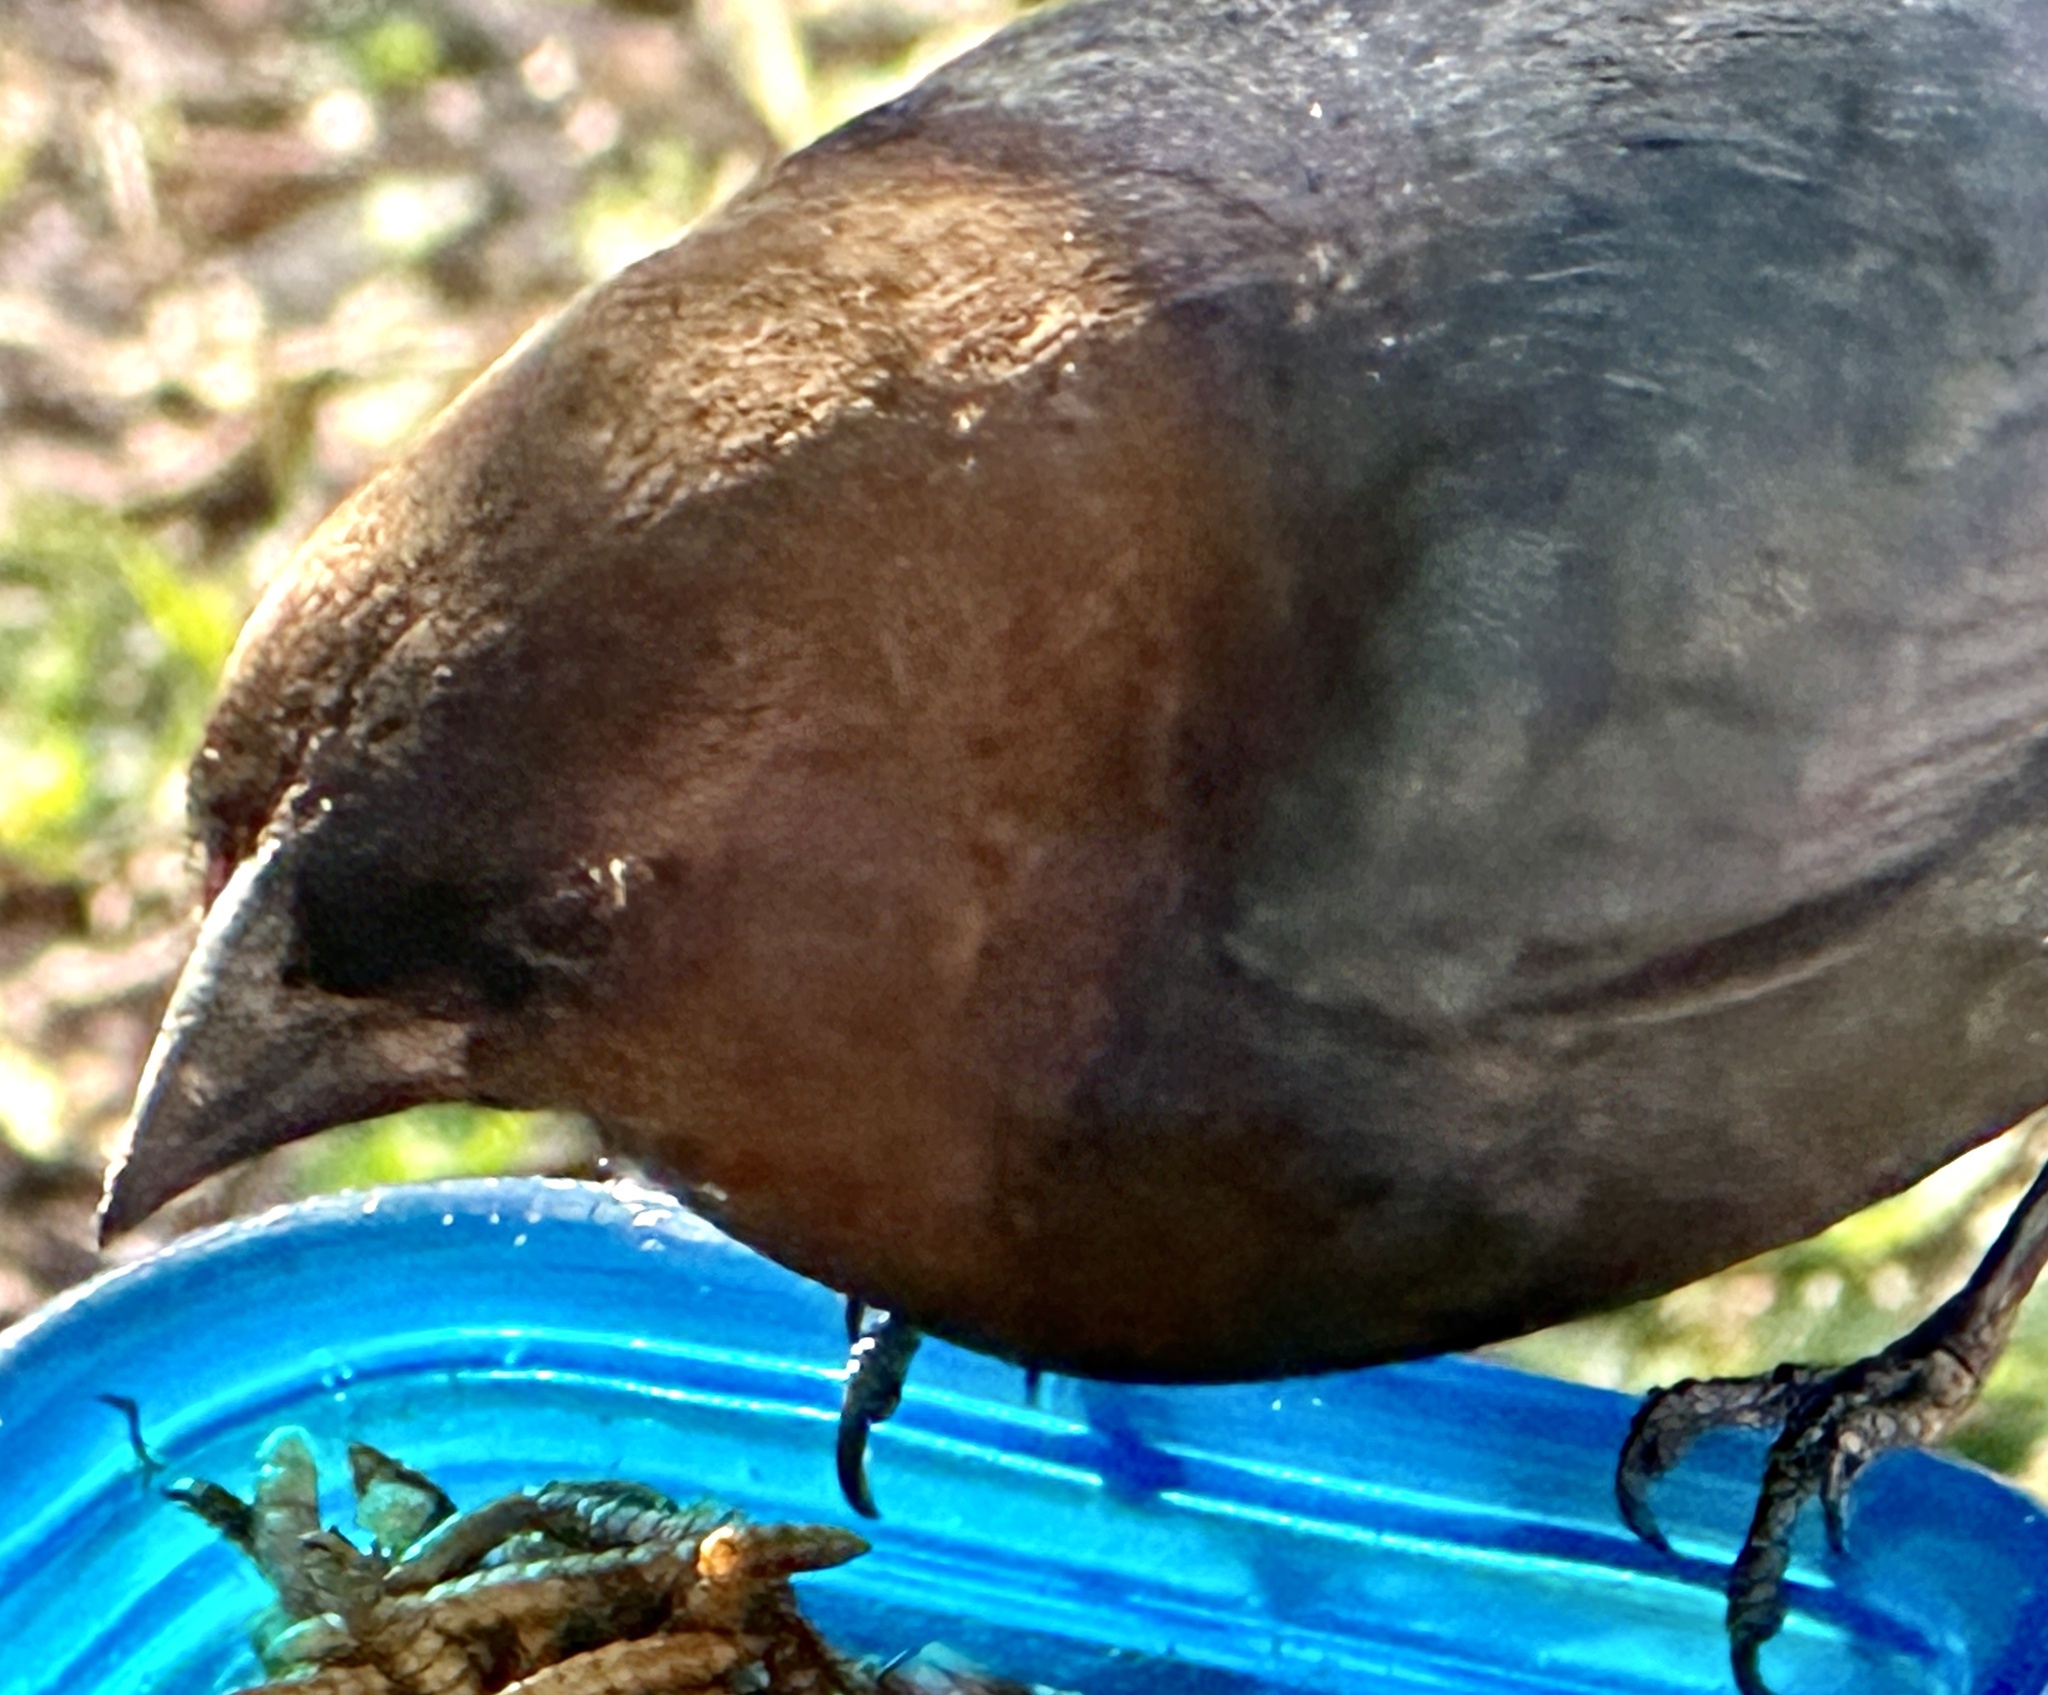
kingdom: Animalia
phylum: Chordata
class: Aves
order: Passeriformes
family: Icteridae
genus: Molothrus
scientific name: Molothrus ater
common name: Brown-headed cowbird
